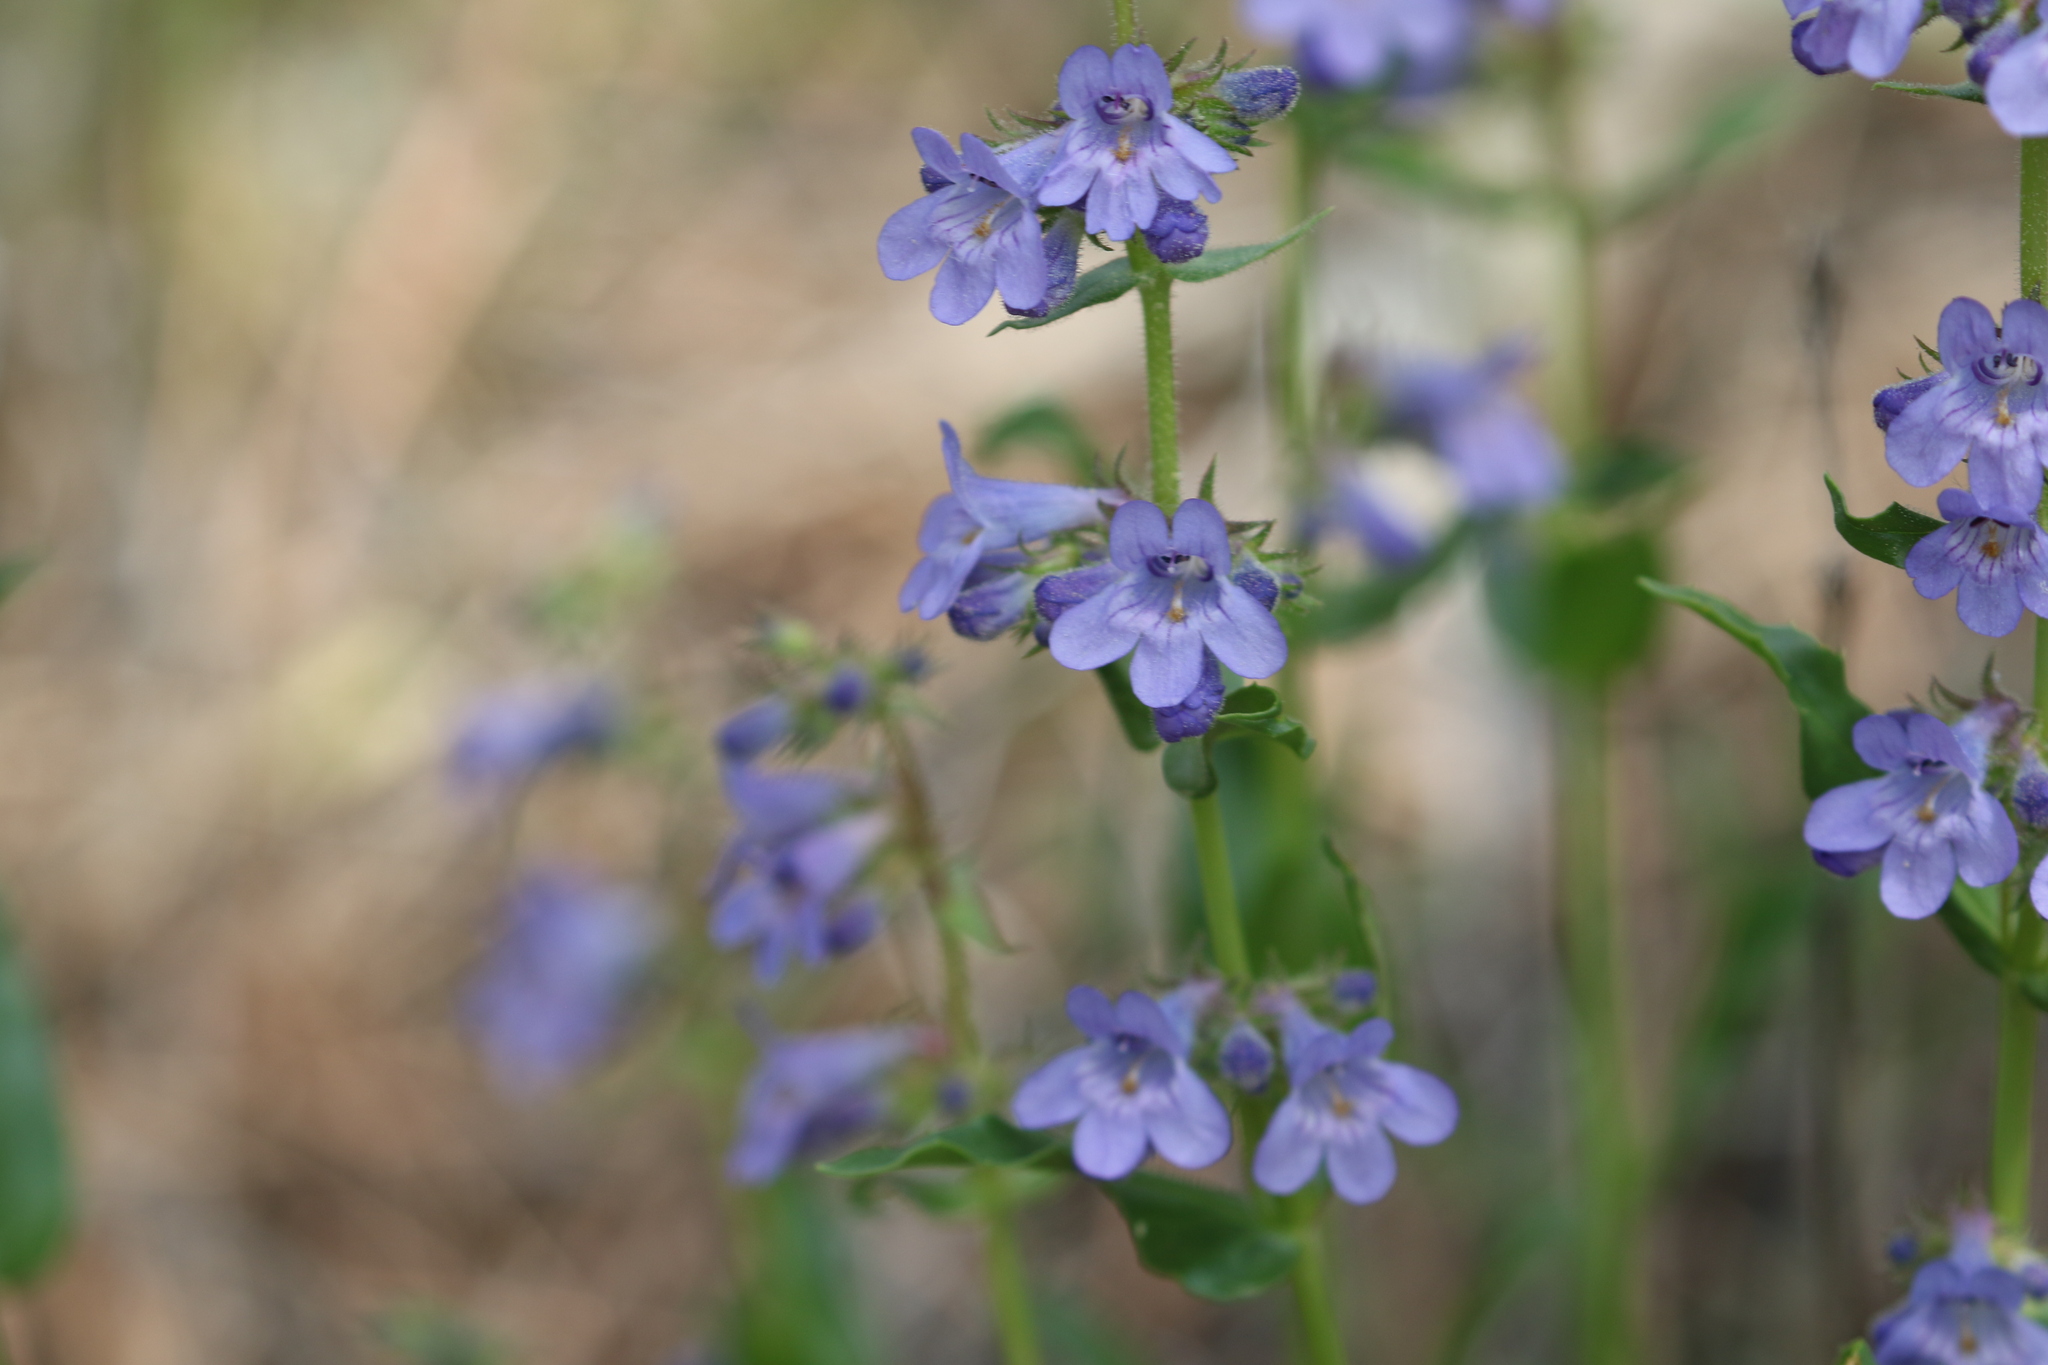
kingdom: Plantae
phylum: Tracheophyta
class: Magnoliopsida
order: Lamiales
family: Plantaginaceae
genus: Penstemon
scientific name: Penstemon virens
